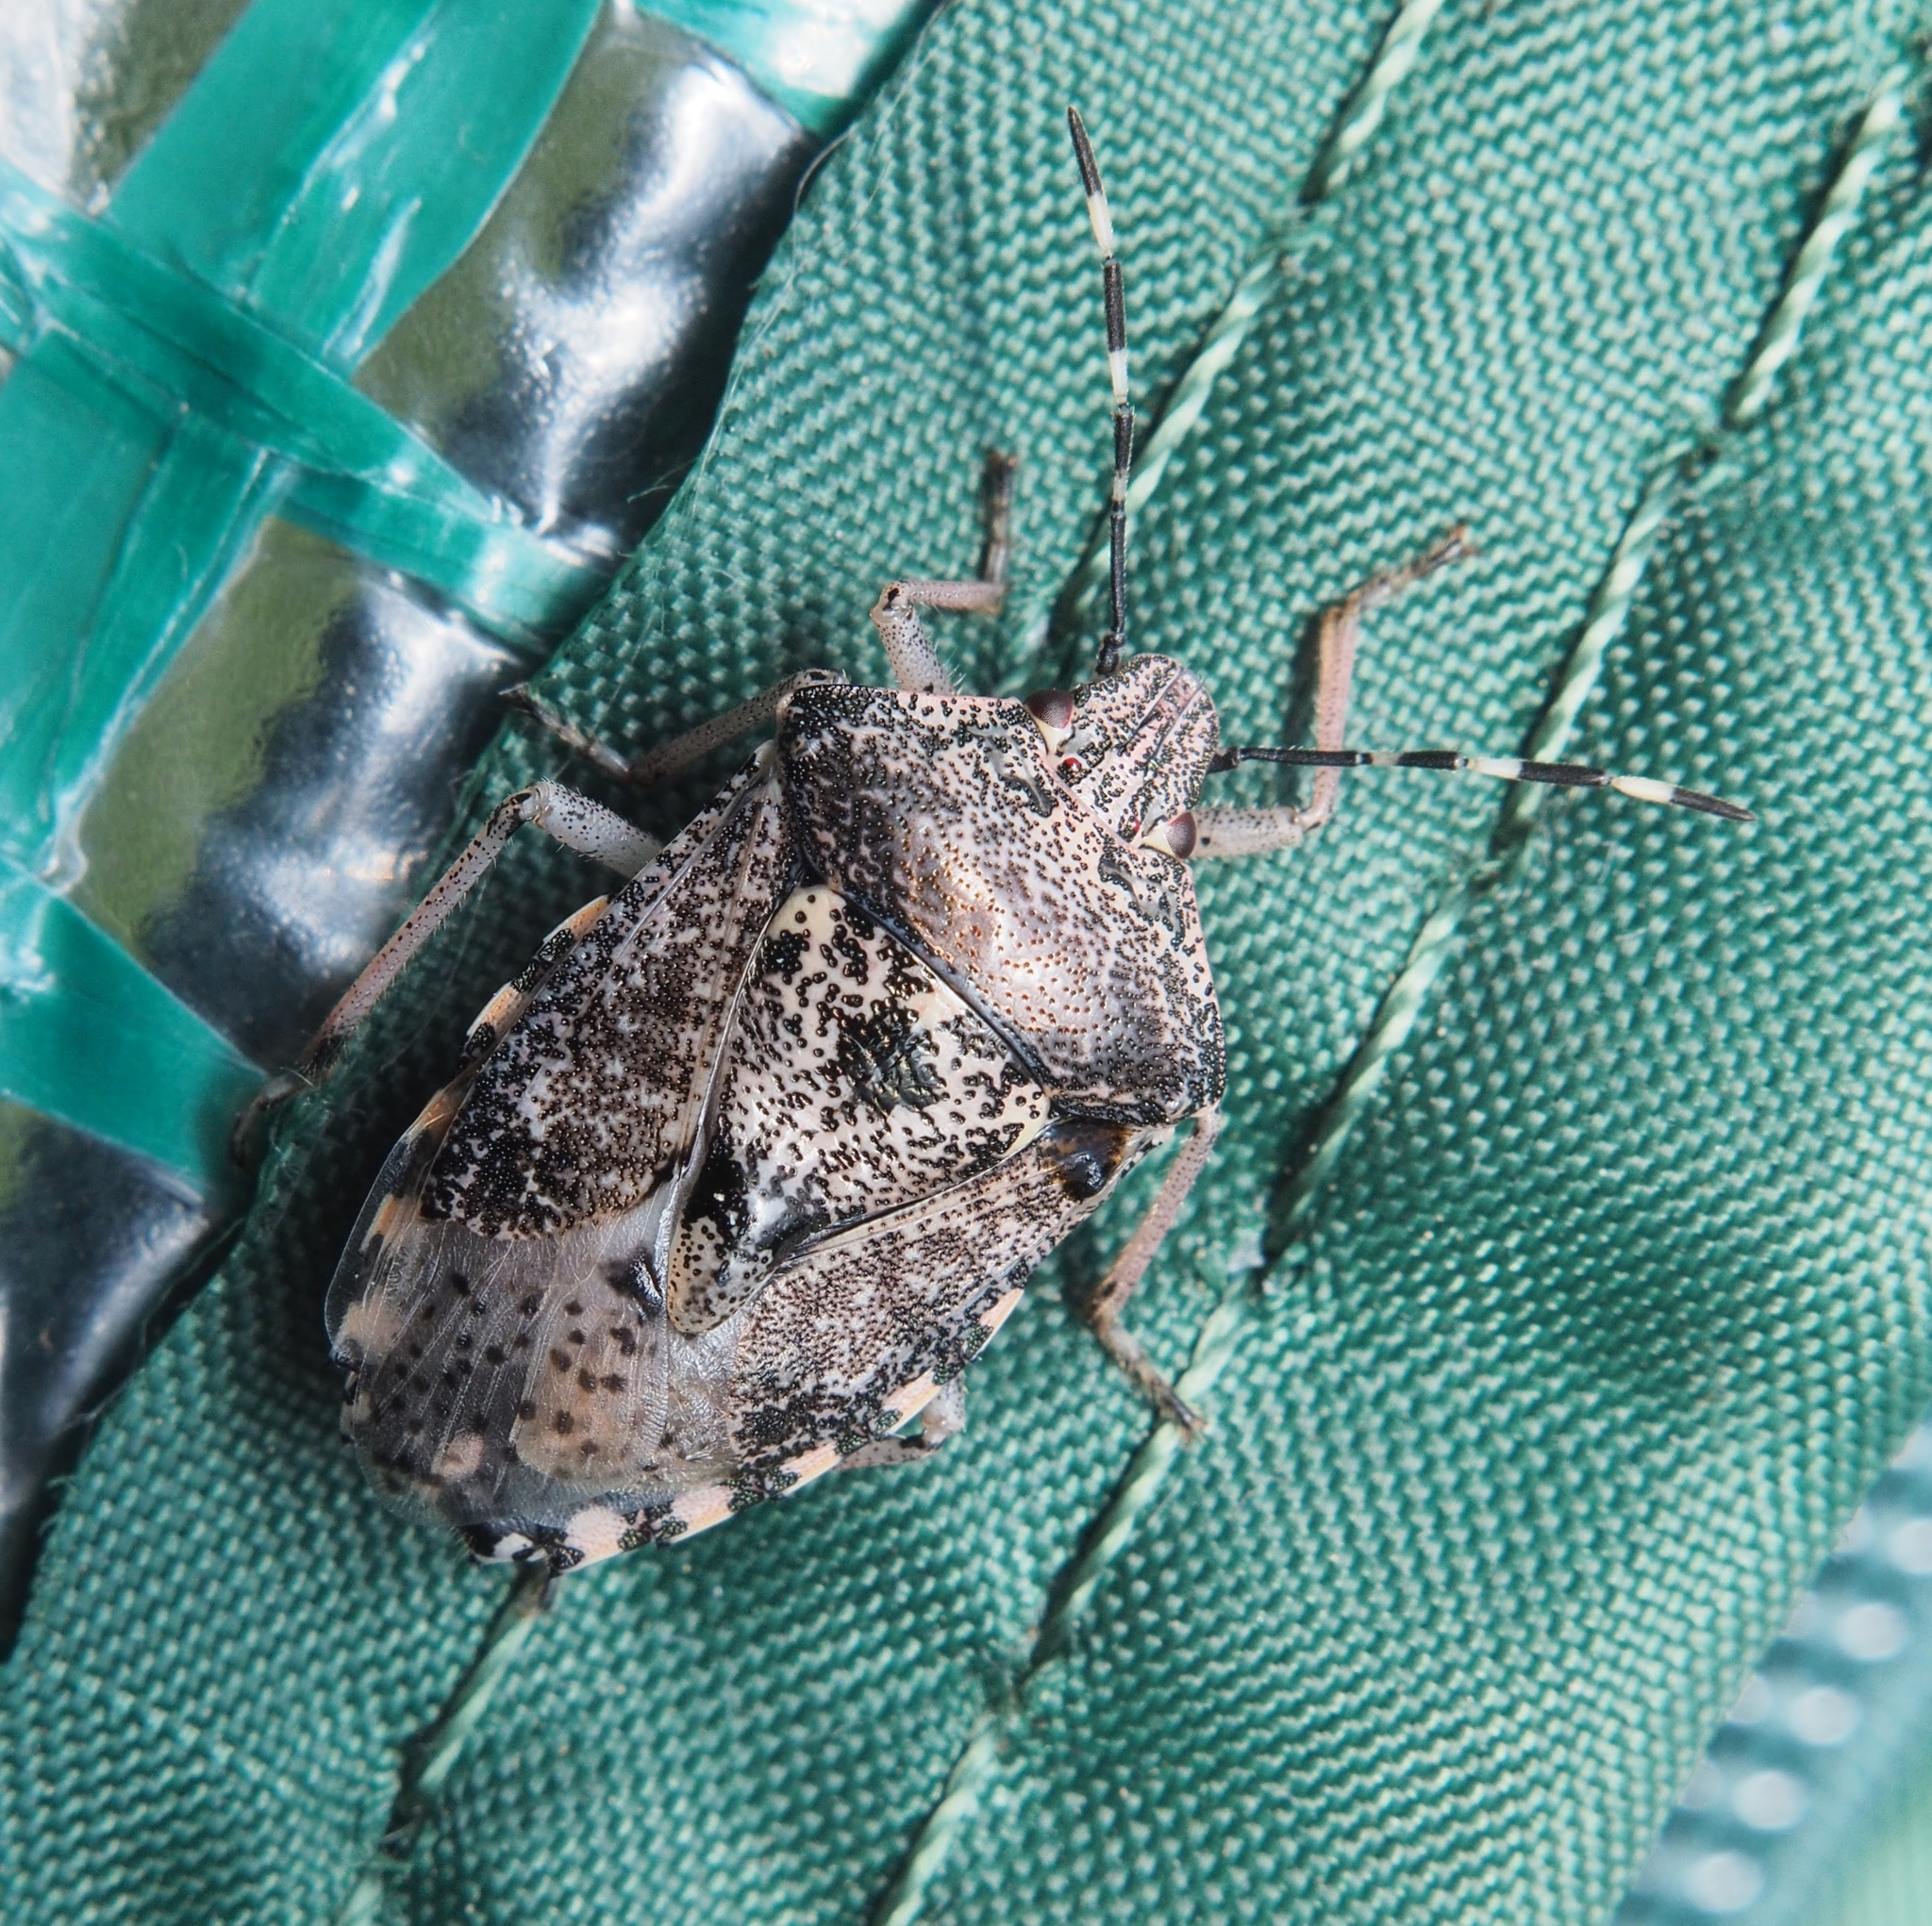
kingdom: Animalia
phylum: Arthropoda
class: Insecta
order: Hemiptera
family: Pentatomidae
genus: Rhaphigaster
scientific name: Rhaphigaster nebulosa
